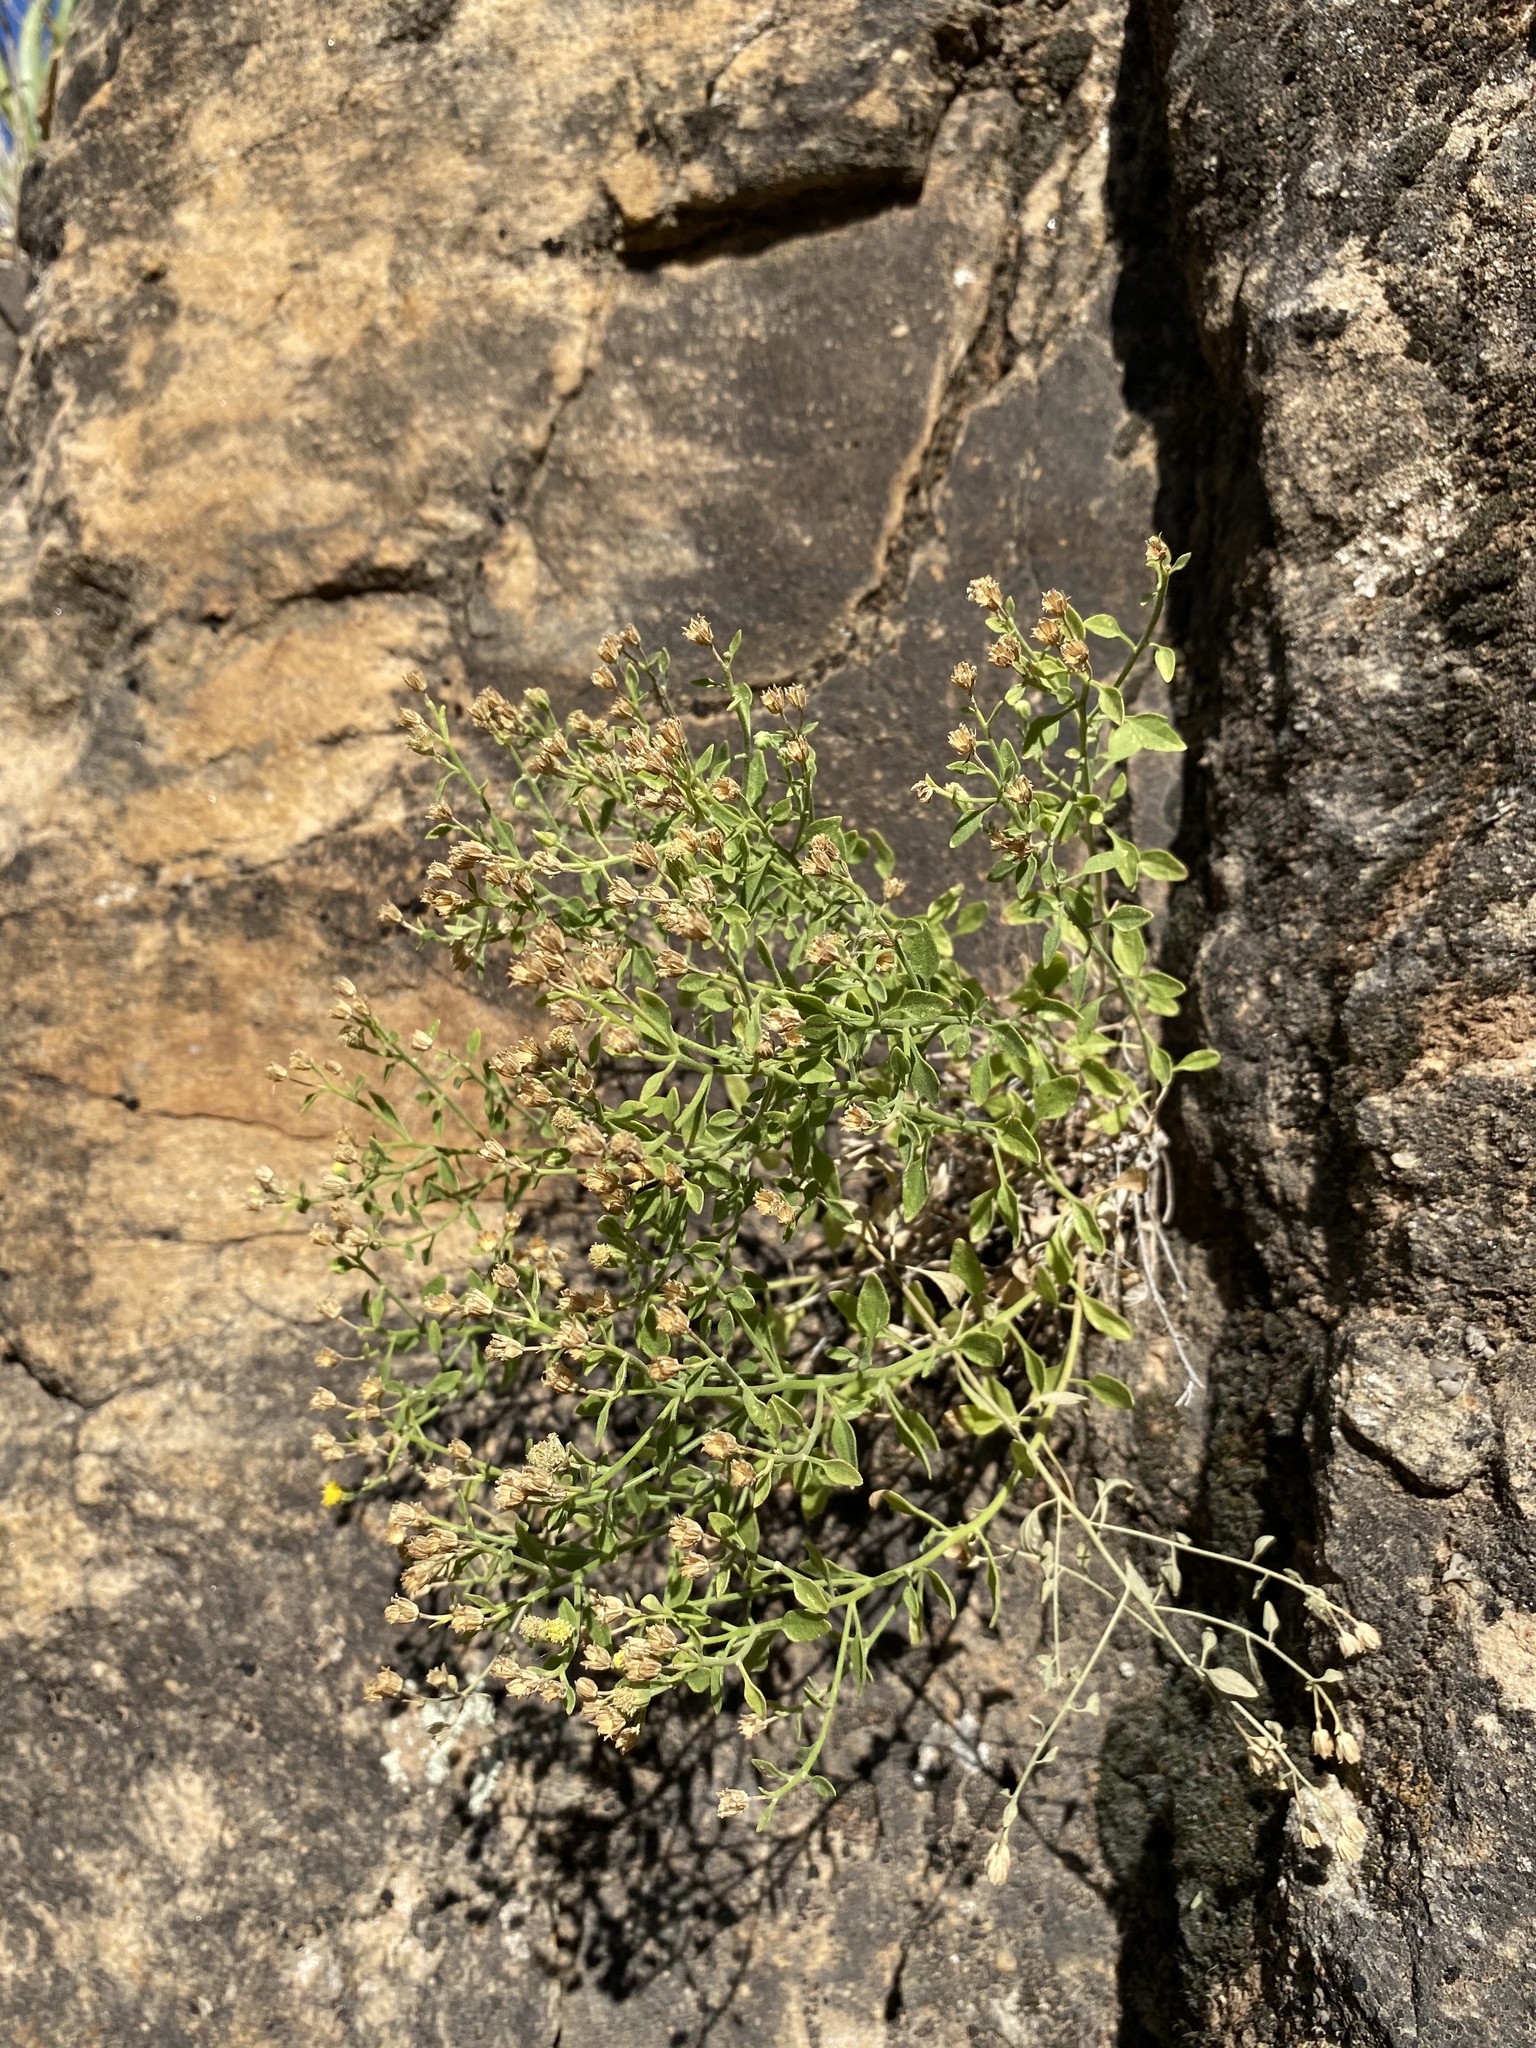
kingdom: Plantae
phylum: Tracheophyta
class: Magnoliopsida
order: Asterales
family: Asteraceae
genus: Laphamia
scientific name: Laphamia congesta
